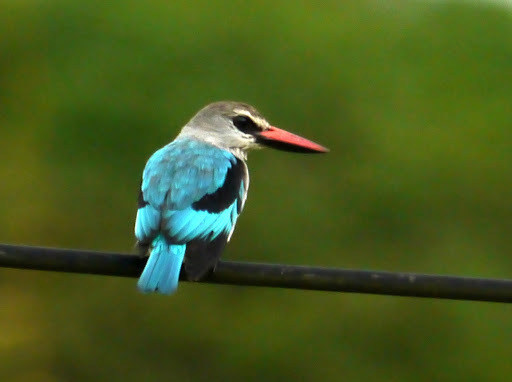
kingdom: Animalia
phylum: Chordata
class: Aves
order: Coraciiformes
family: Alcedinidae
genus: Halcyon
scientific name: Halcyon senegalensis
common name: Woodland kingfisher
